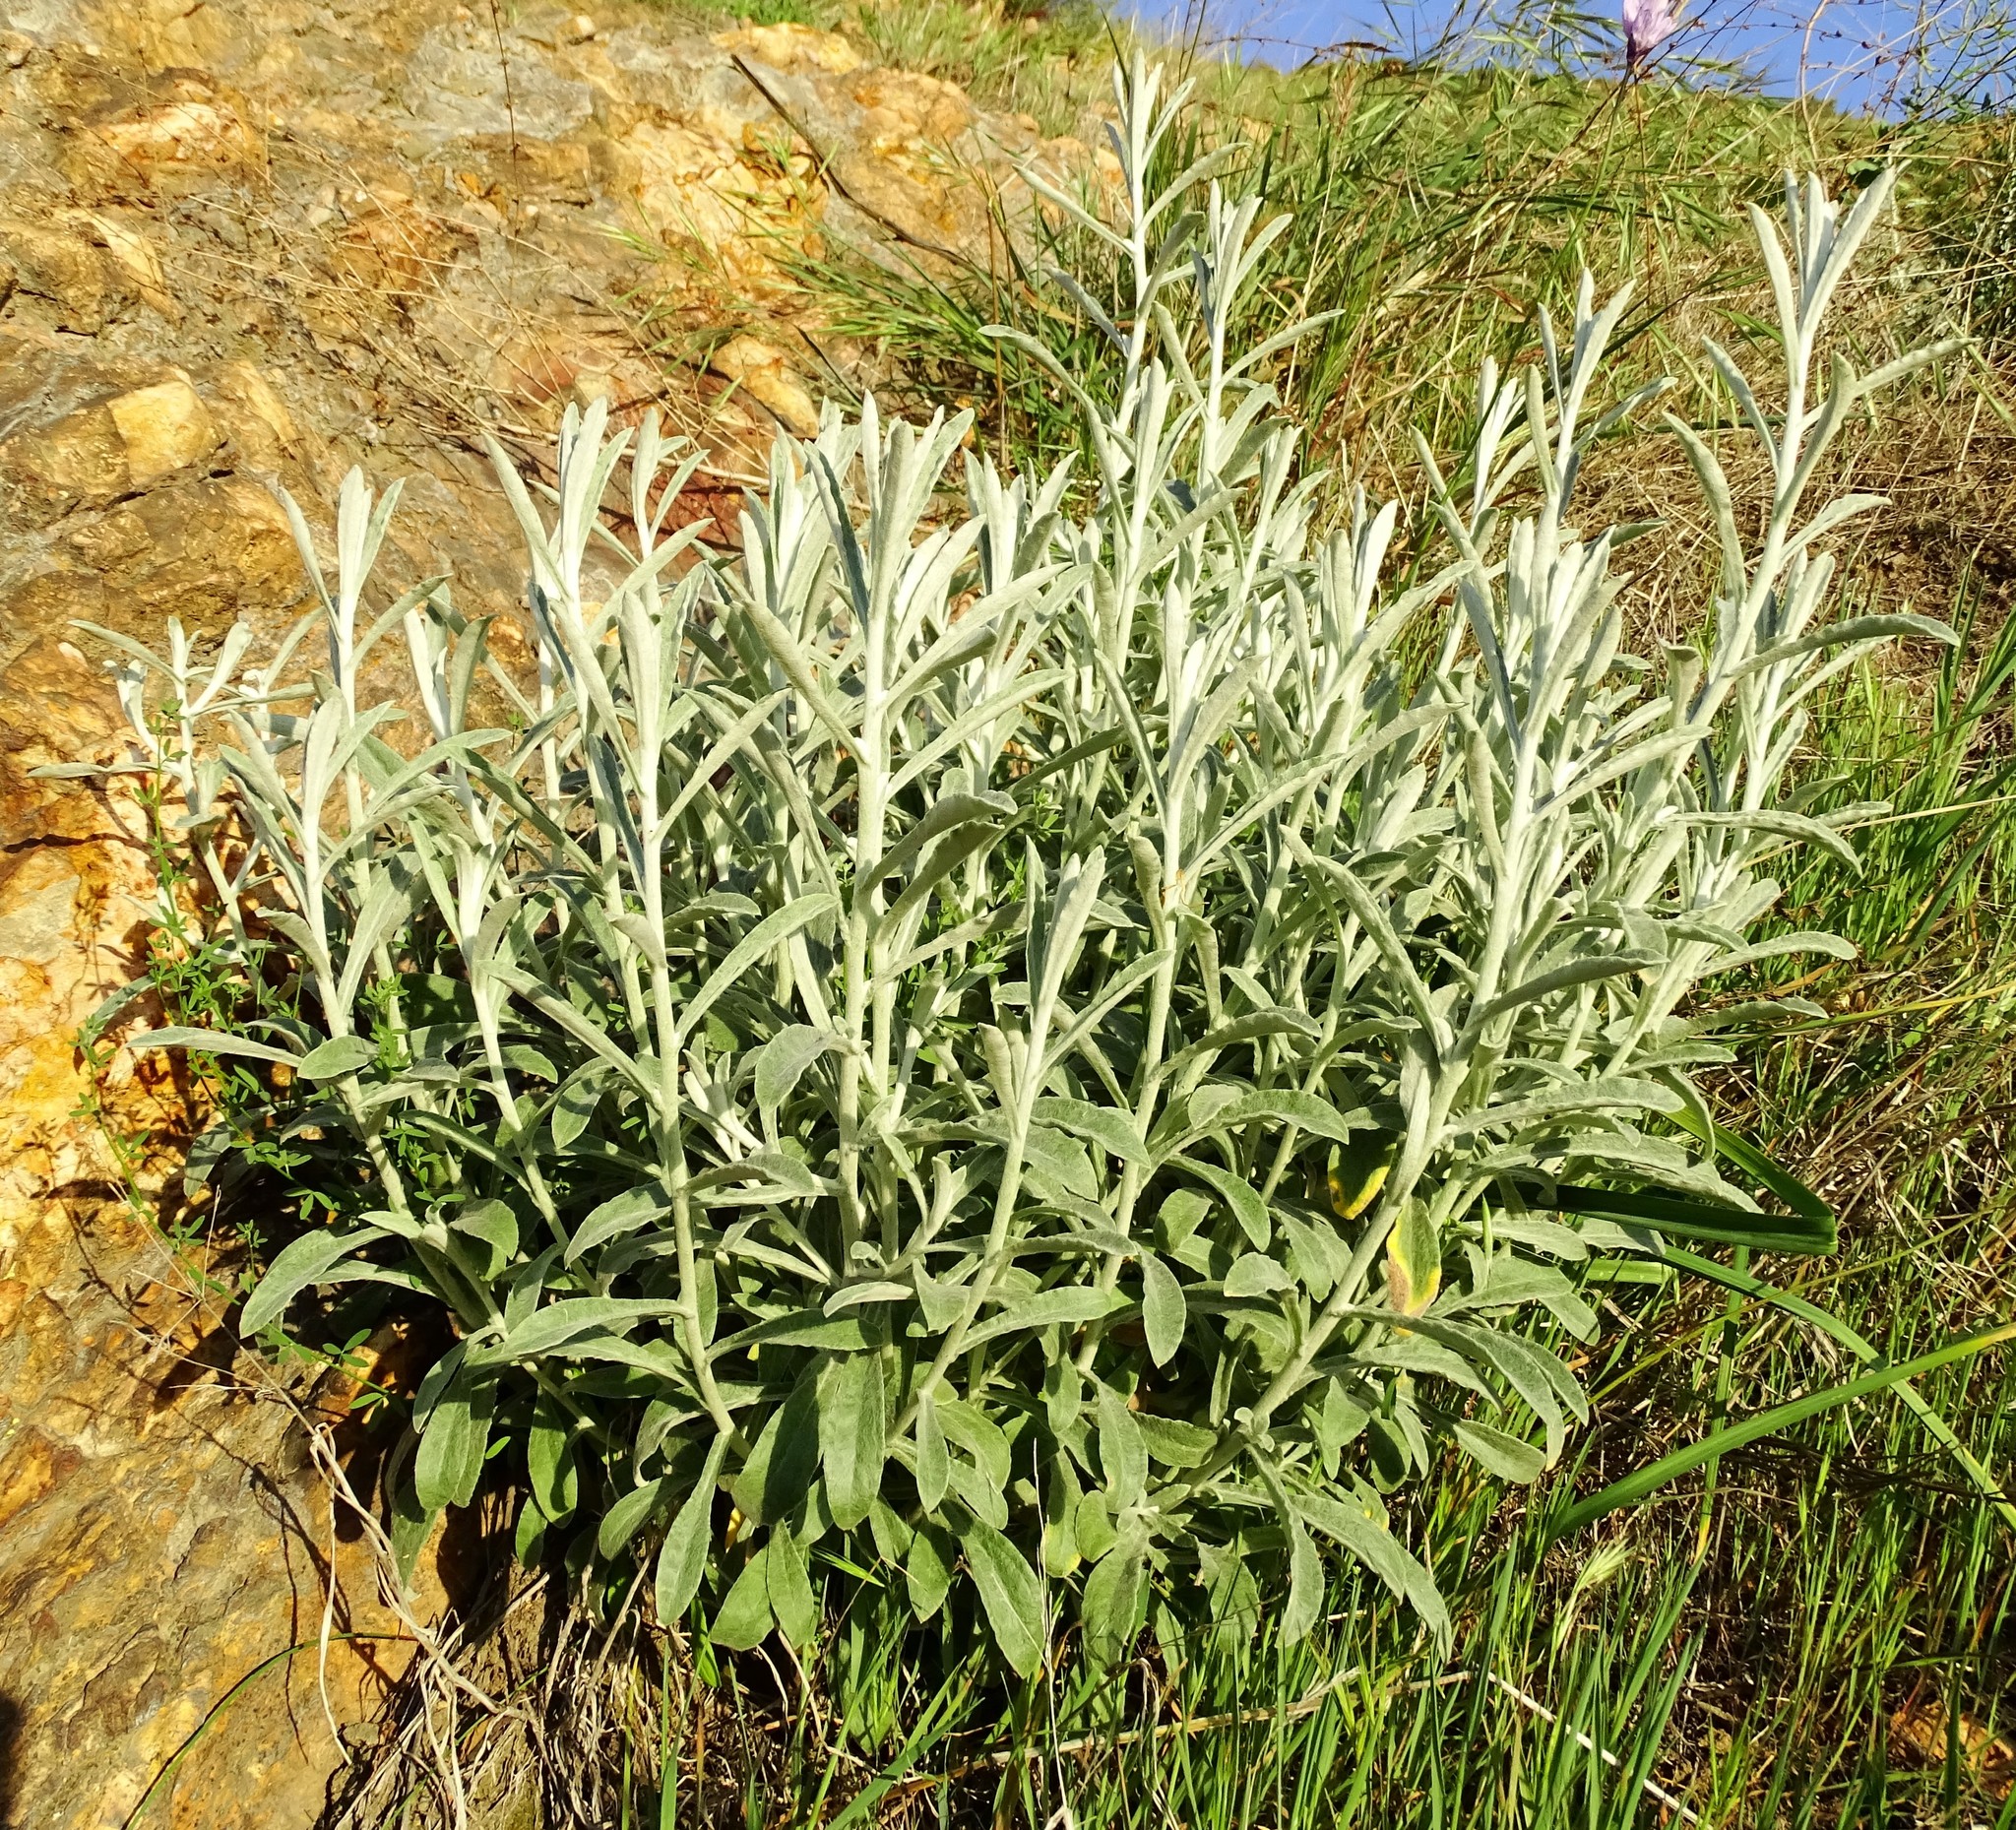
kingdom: Plantae
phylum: Tracheophyta
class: Magnoliopsida
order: Asterales
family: Asteraceae
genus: Pseudognaphalium
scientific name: Pseudognaphalium microcephalum
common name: San diego rabbit-tobacco
